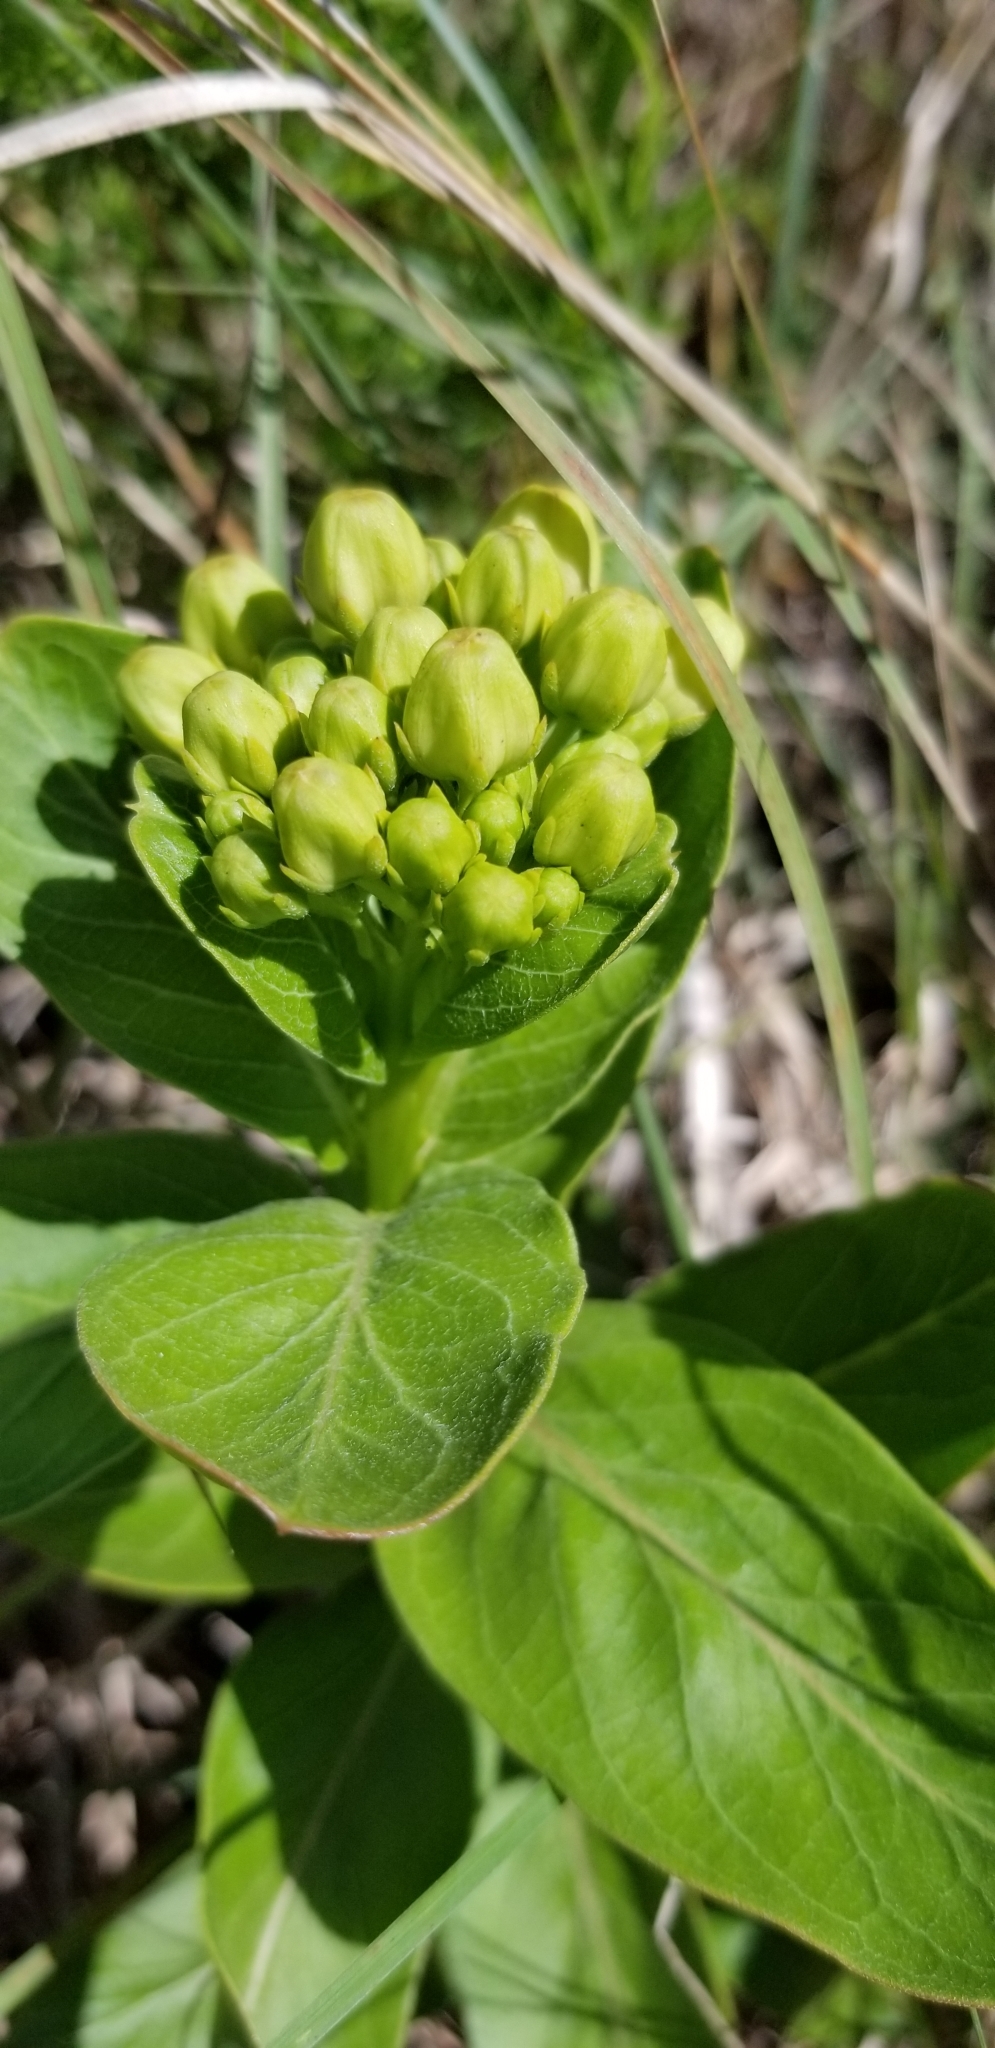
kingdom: Plantae
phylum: Tracheophyta
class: Magnoliopsida
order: Gentianales
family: Apocynaceae
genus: Asclepias
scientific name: Asclepias viridis
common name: Antelope-horns
